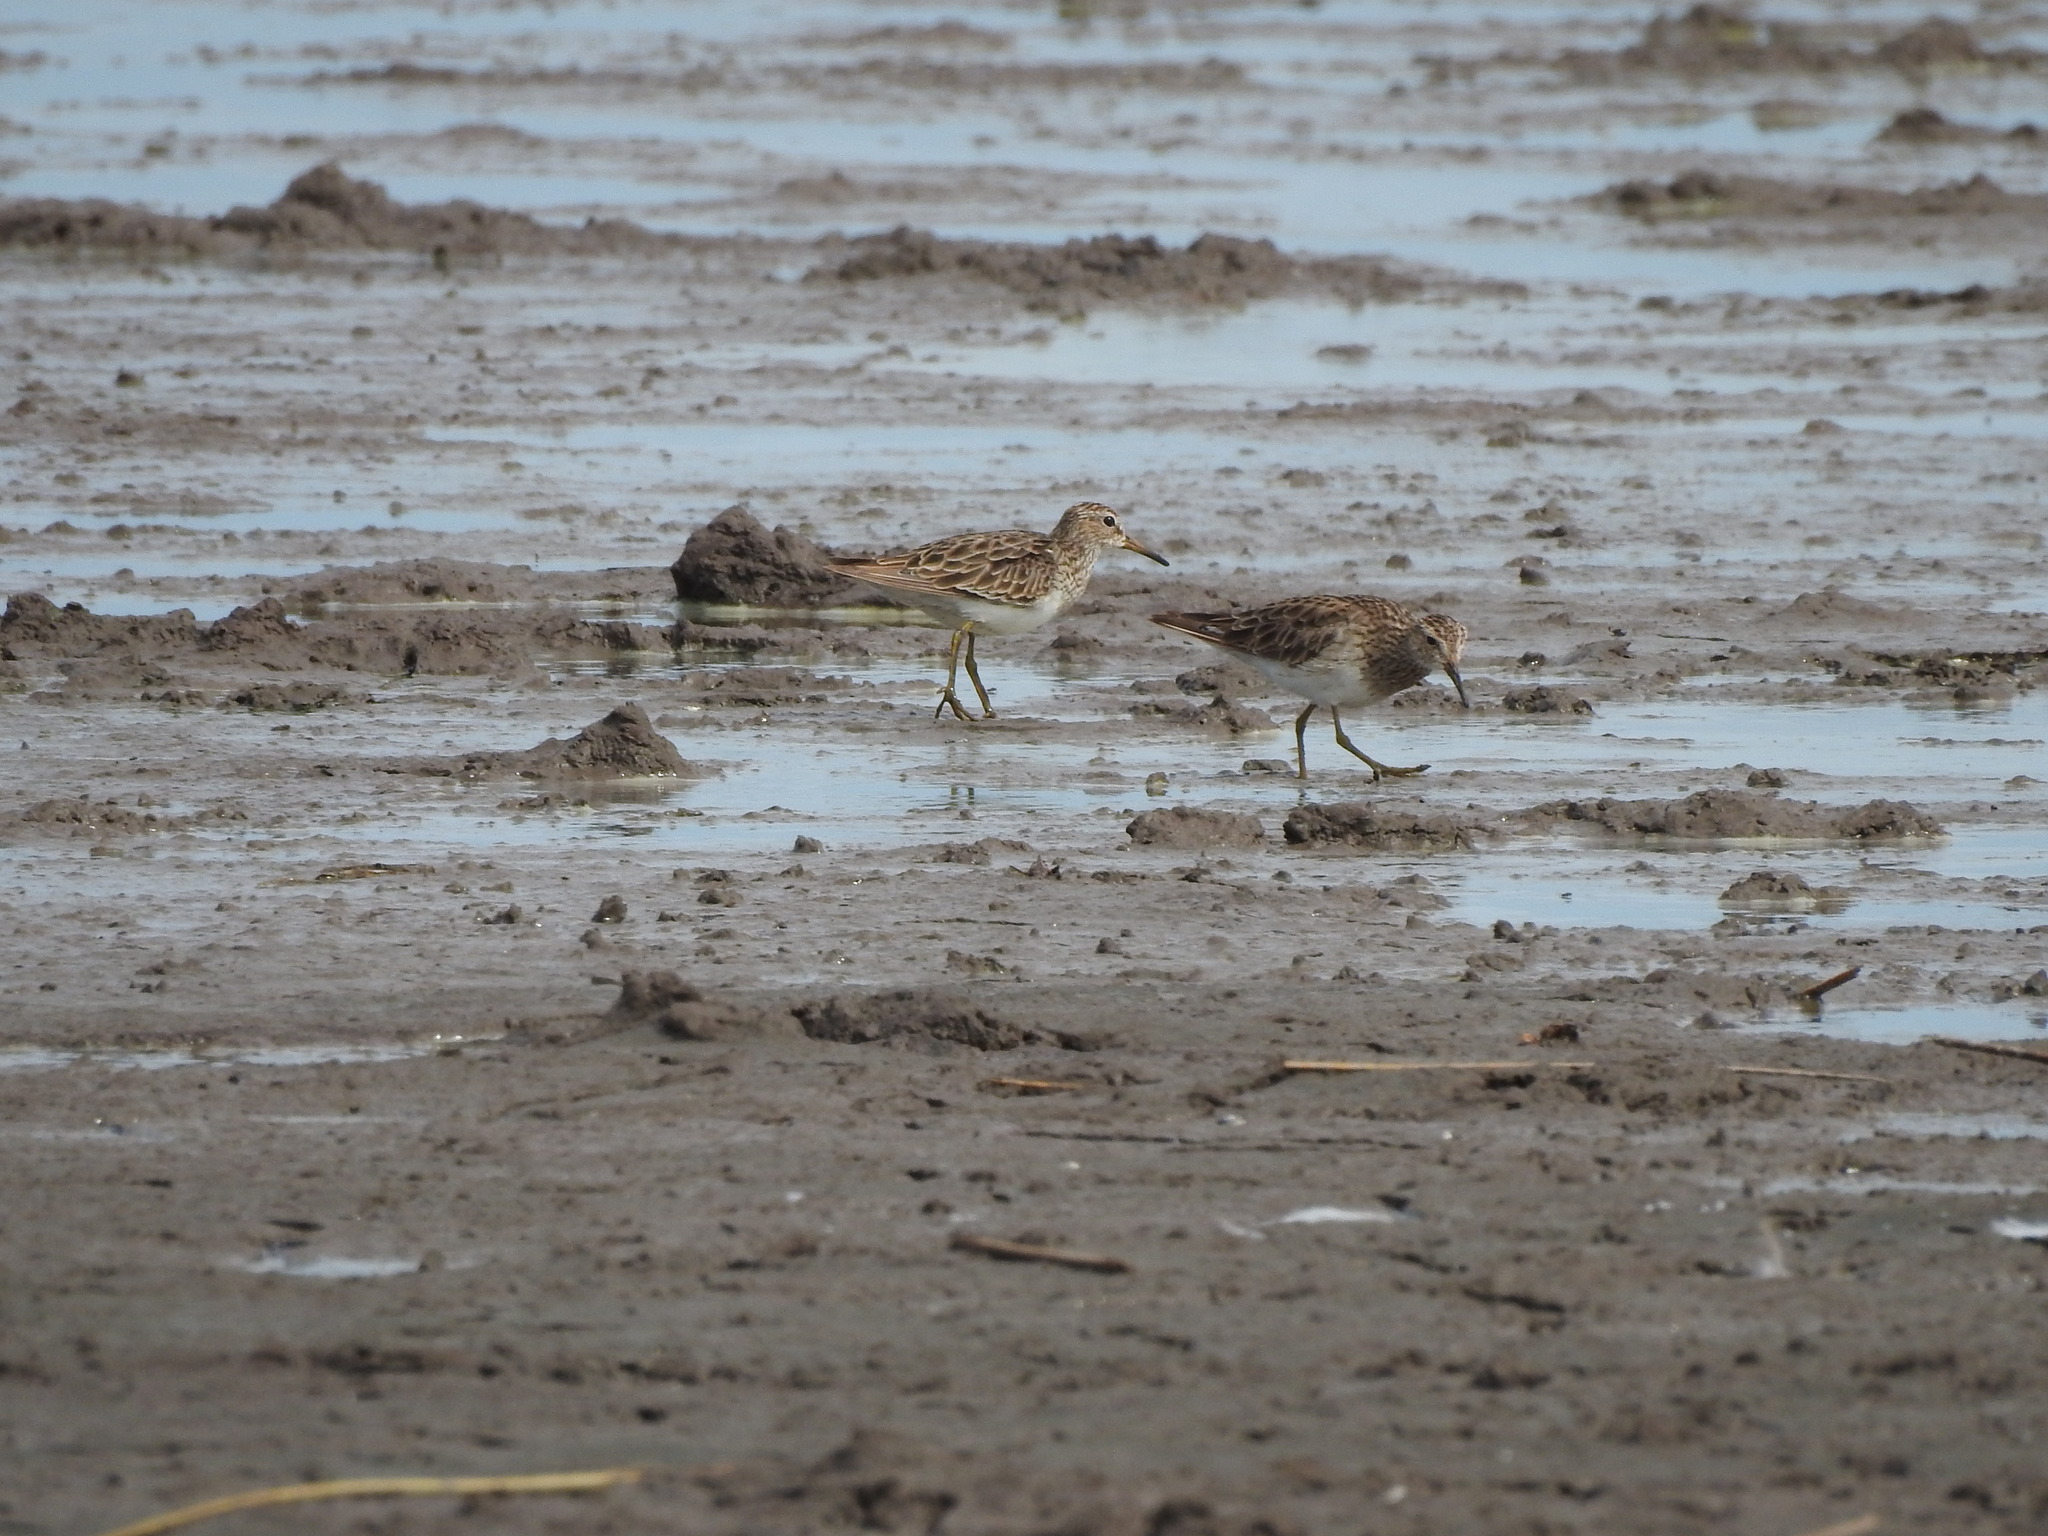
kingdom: Animalia
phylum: Chordata
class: Aves
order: Charadriiformes
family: Scolopacidae
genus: Calidris
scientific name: Calidris melanotos
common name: Pectoral sandpiper
